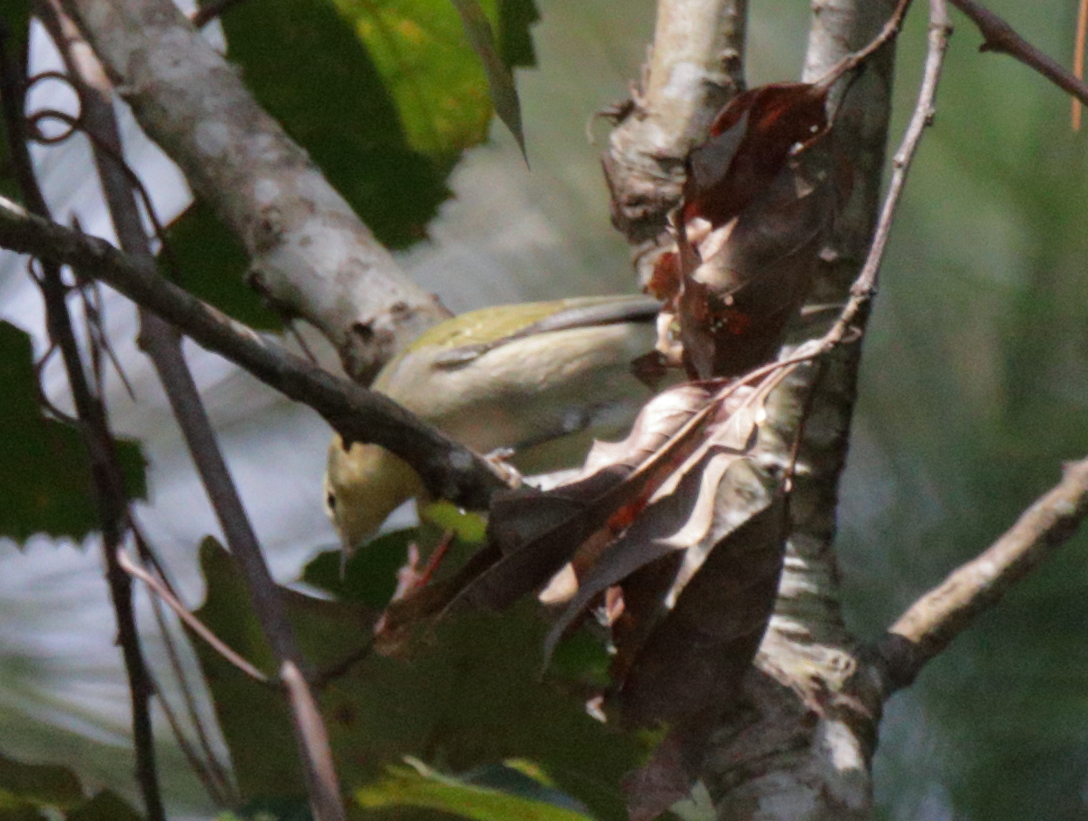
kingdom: Animalia
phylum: Chordata
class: Aves
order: Passeriformes
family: Parulidae
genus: Leiothlypis
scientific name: Leiothlypis peregrina
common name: Tennessee warbler
